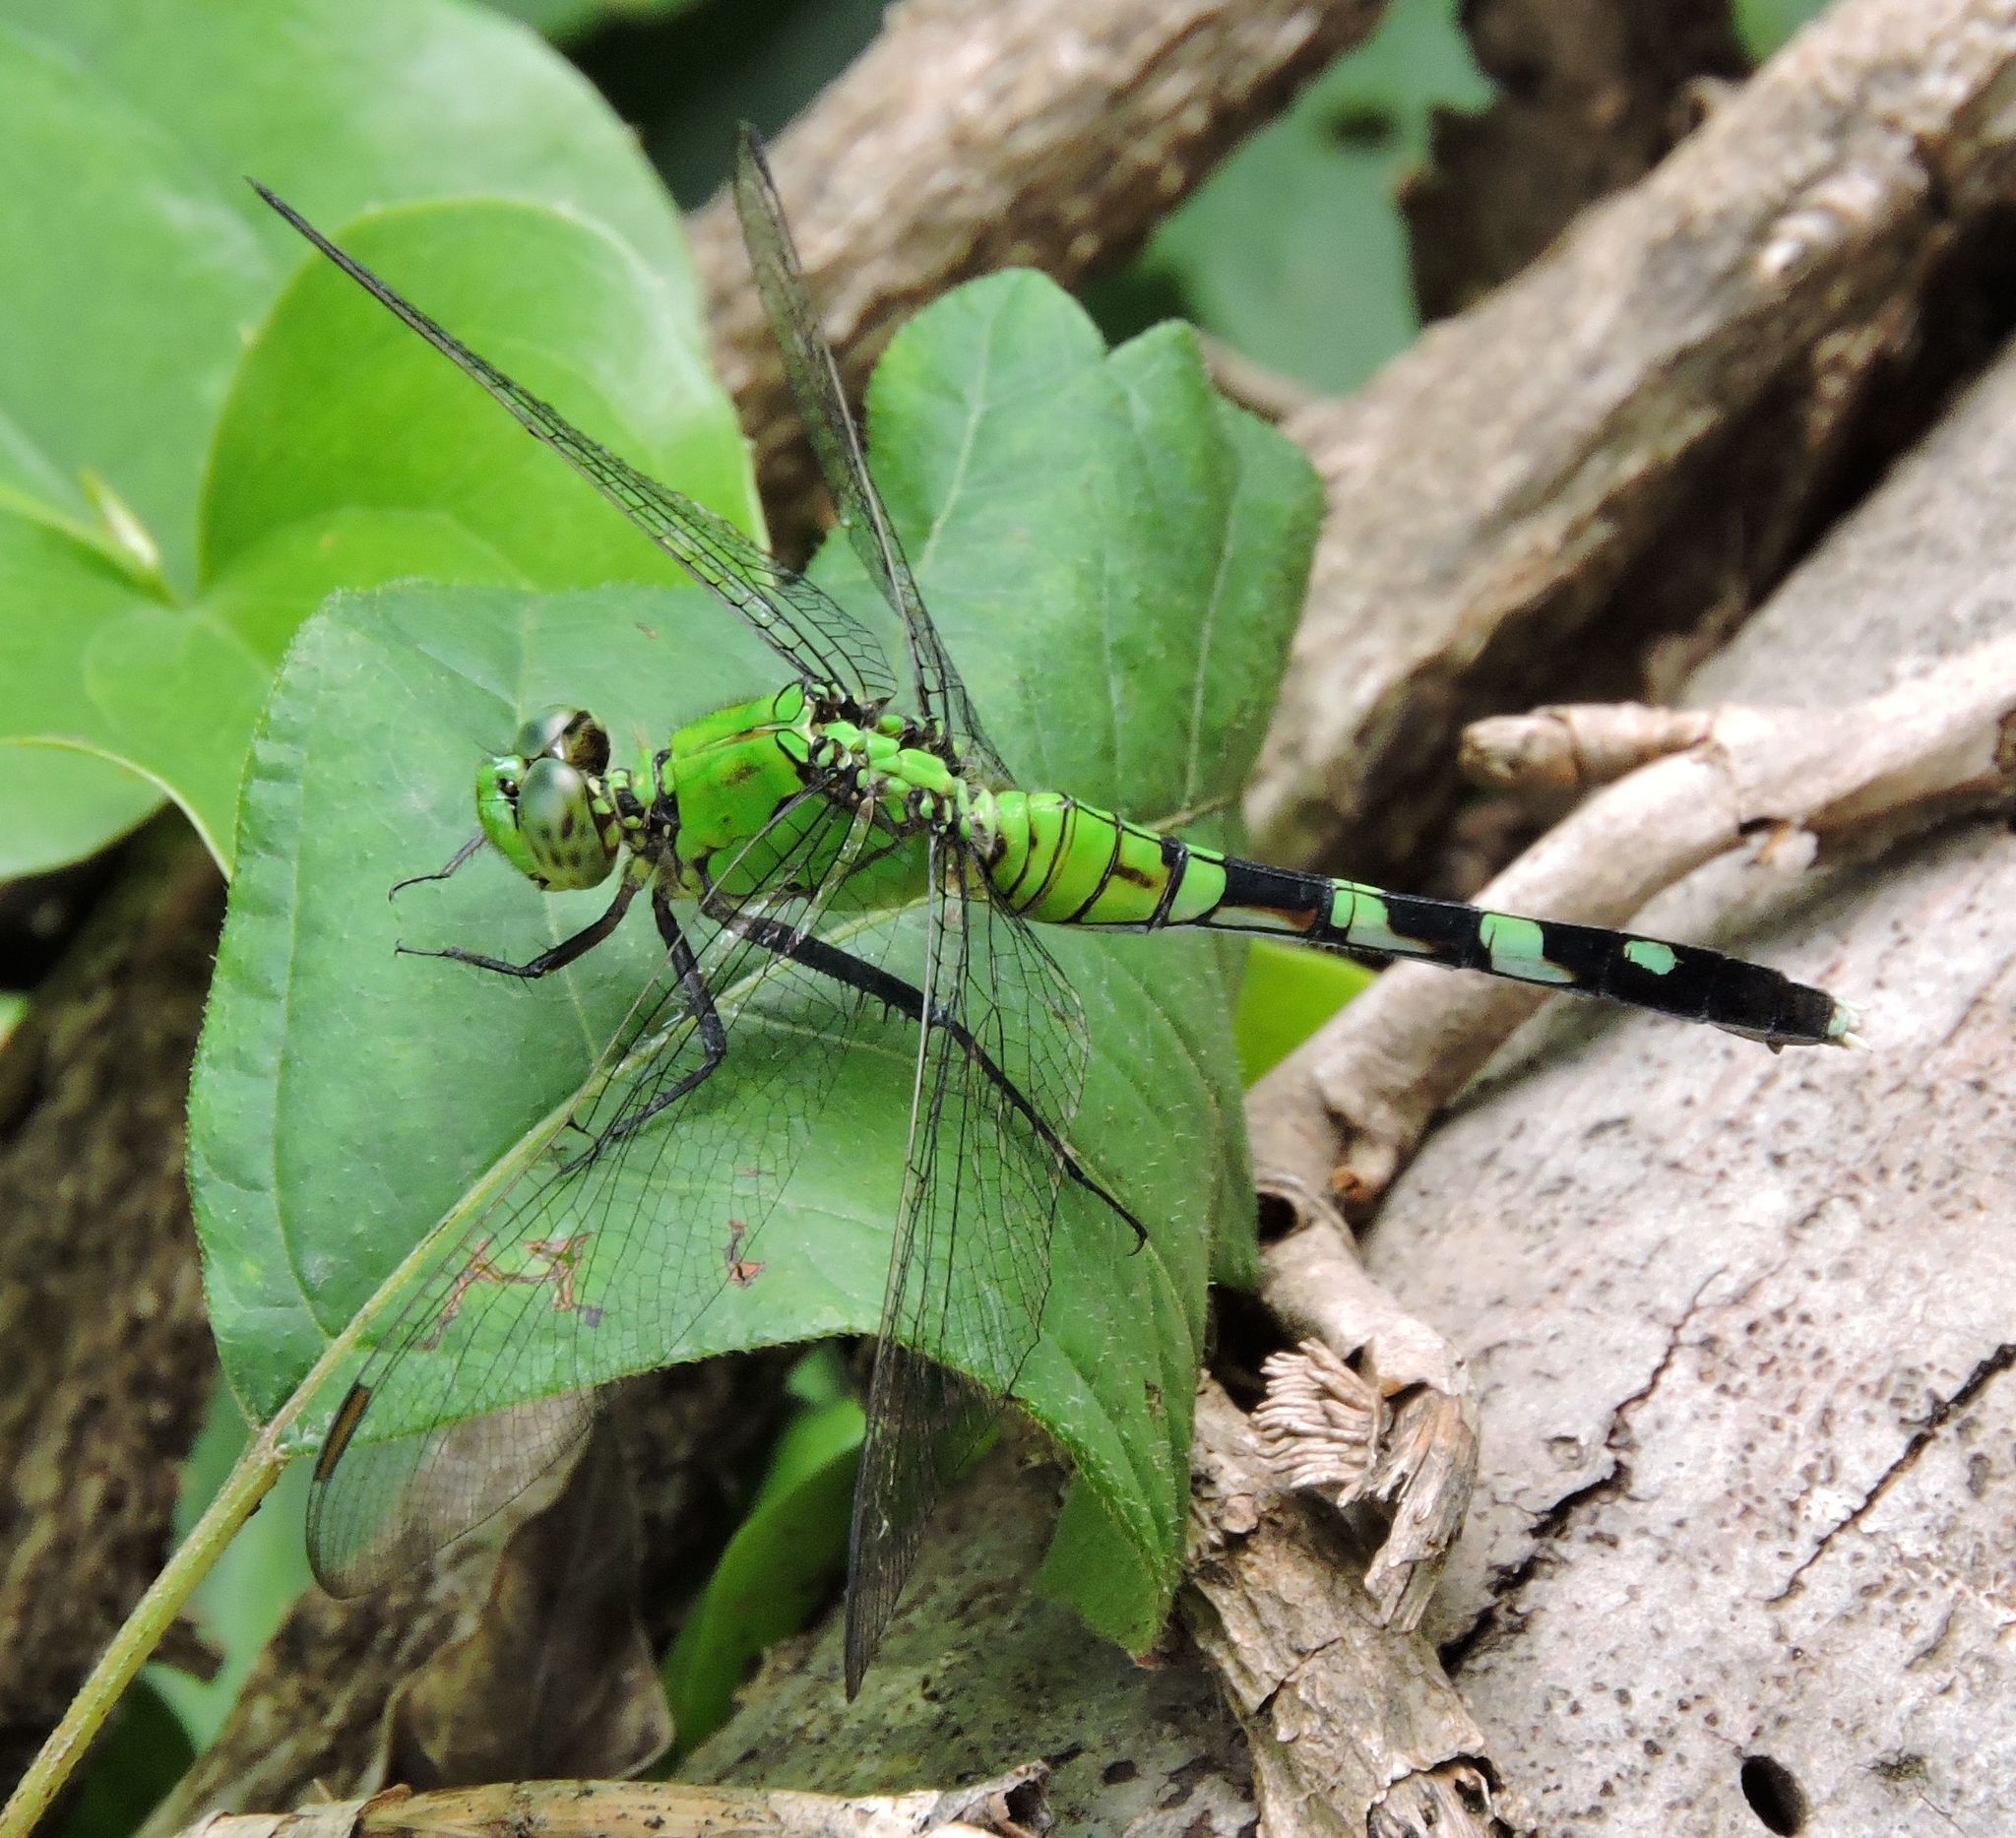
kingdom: Animalia
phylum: Arthropoda
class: Insecta
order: Odonata
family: Libellulidae
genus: Erythemis
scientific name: Erythemis simplicicollis
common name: Eastern pondhawk
